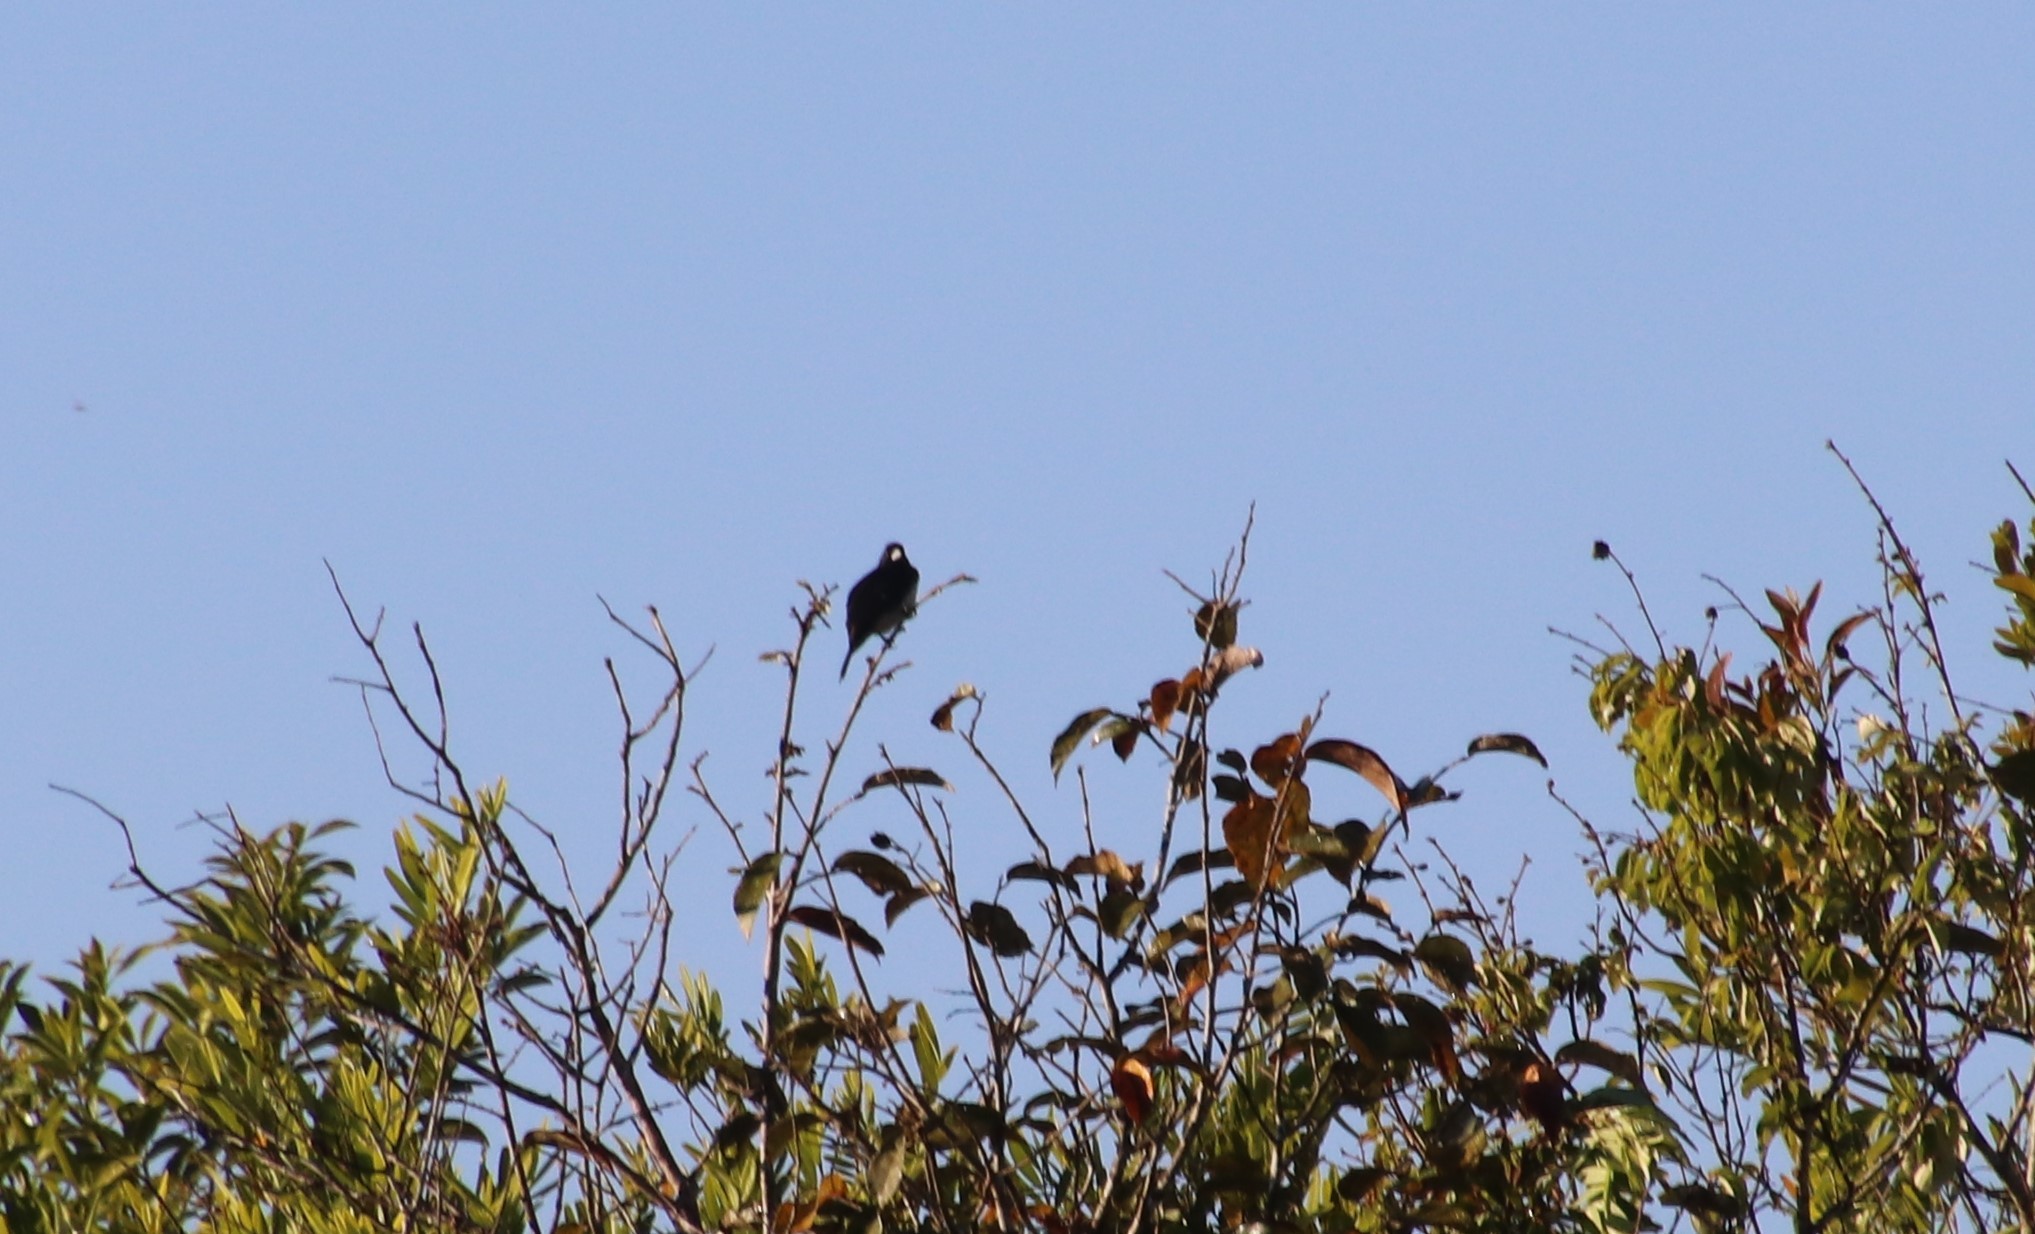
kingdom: Animalia
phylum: Chordata
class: Aves
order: Passeriformes
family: Thraupidae
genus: Conothraupis
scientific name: Conothraupis mesoleuca
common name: Cone-billed tanager
